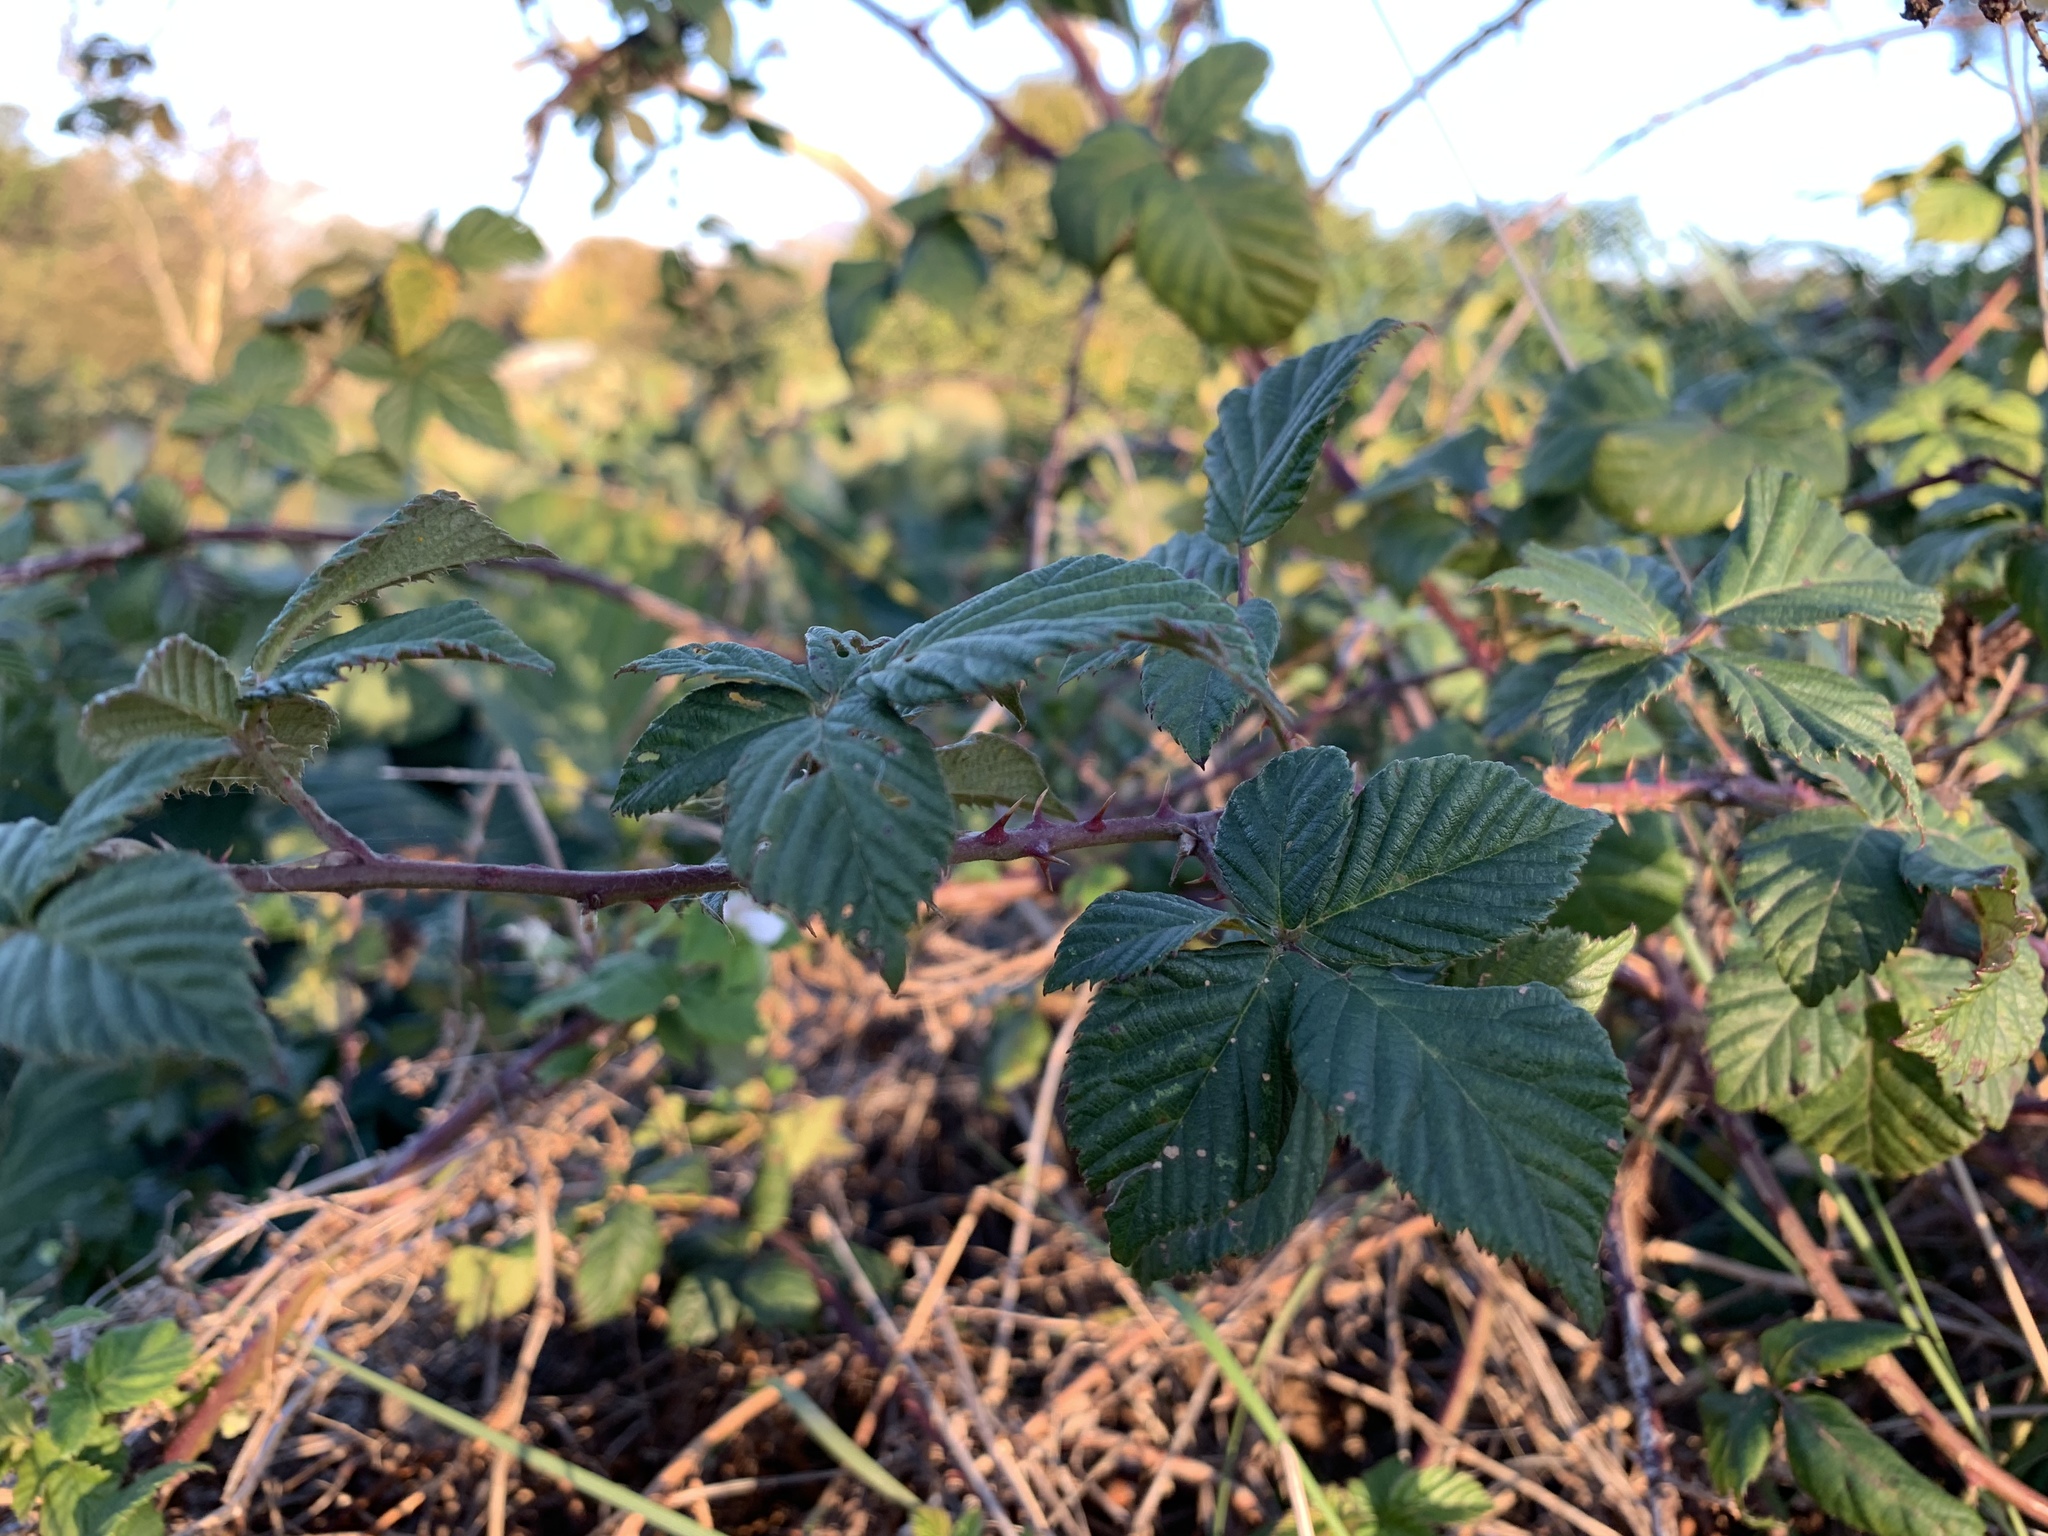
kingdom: Plantae
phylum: Tracheophyta
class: Magnoliopsida
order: Rosales
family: Rosaceae
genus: Rubus
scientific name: Rubus
